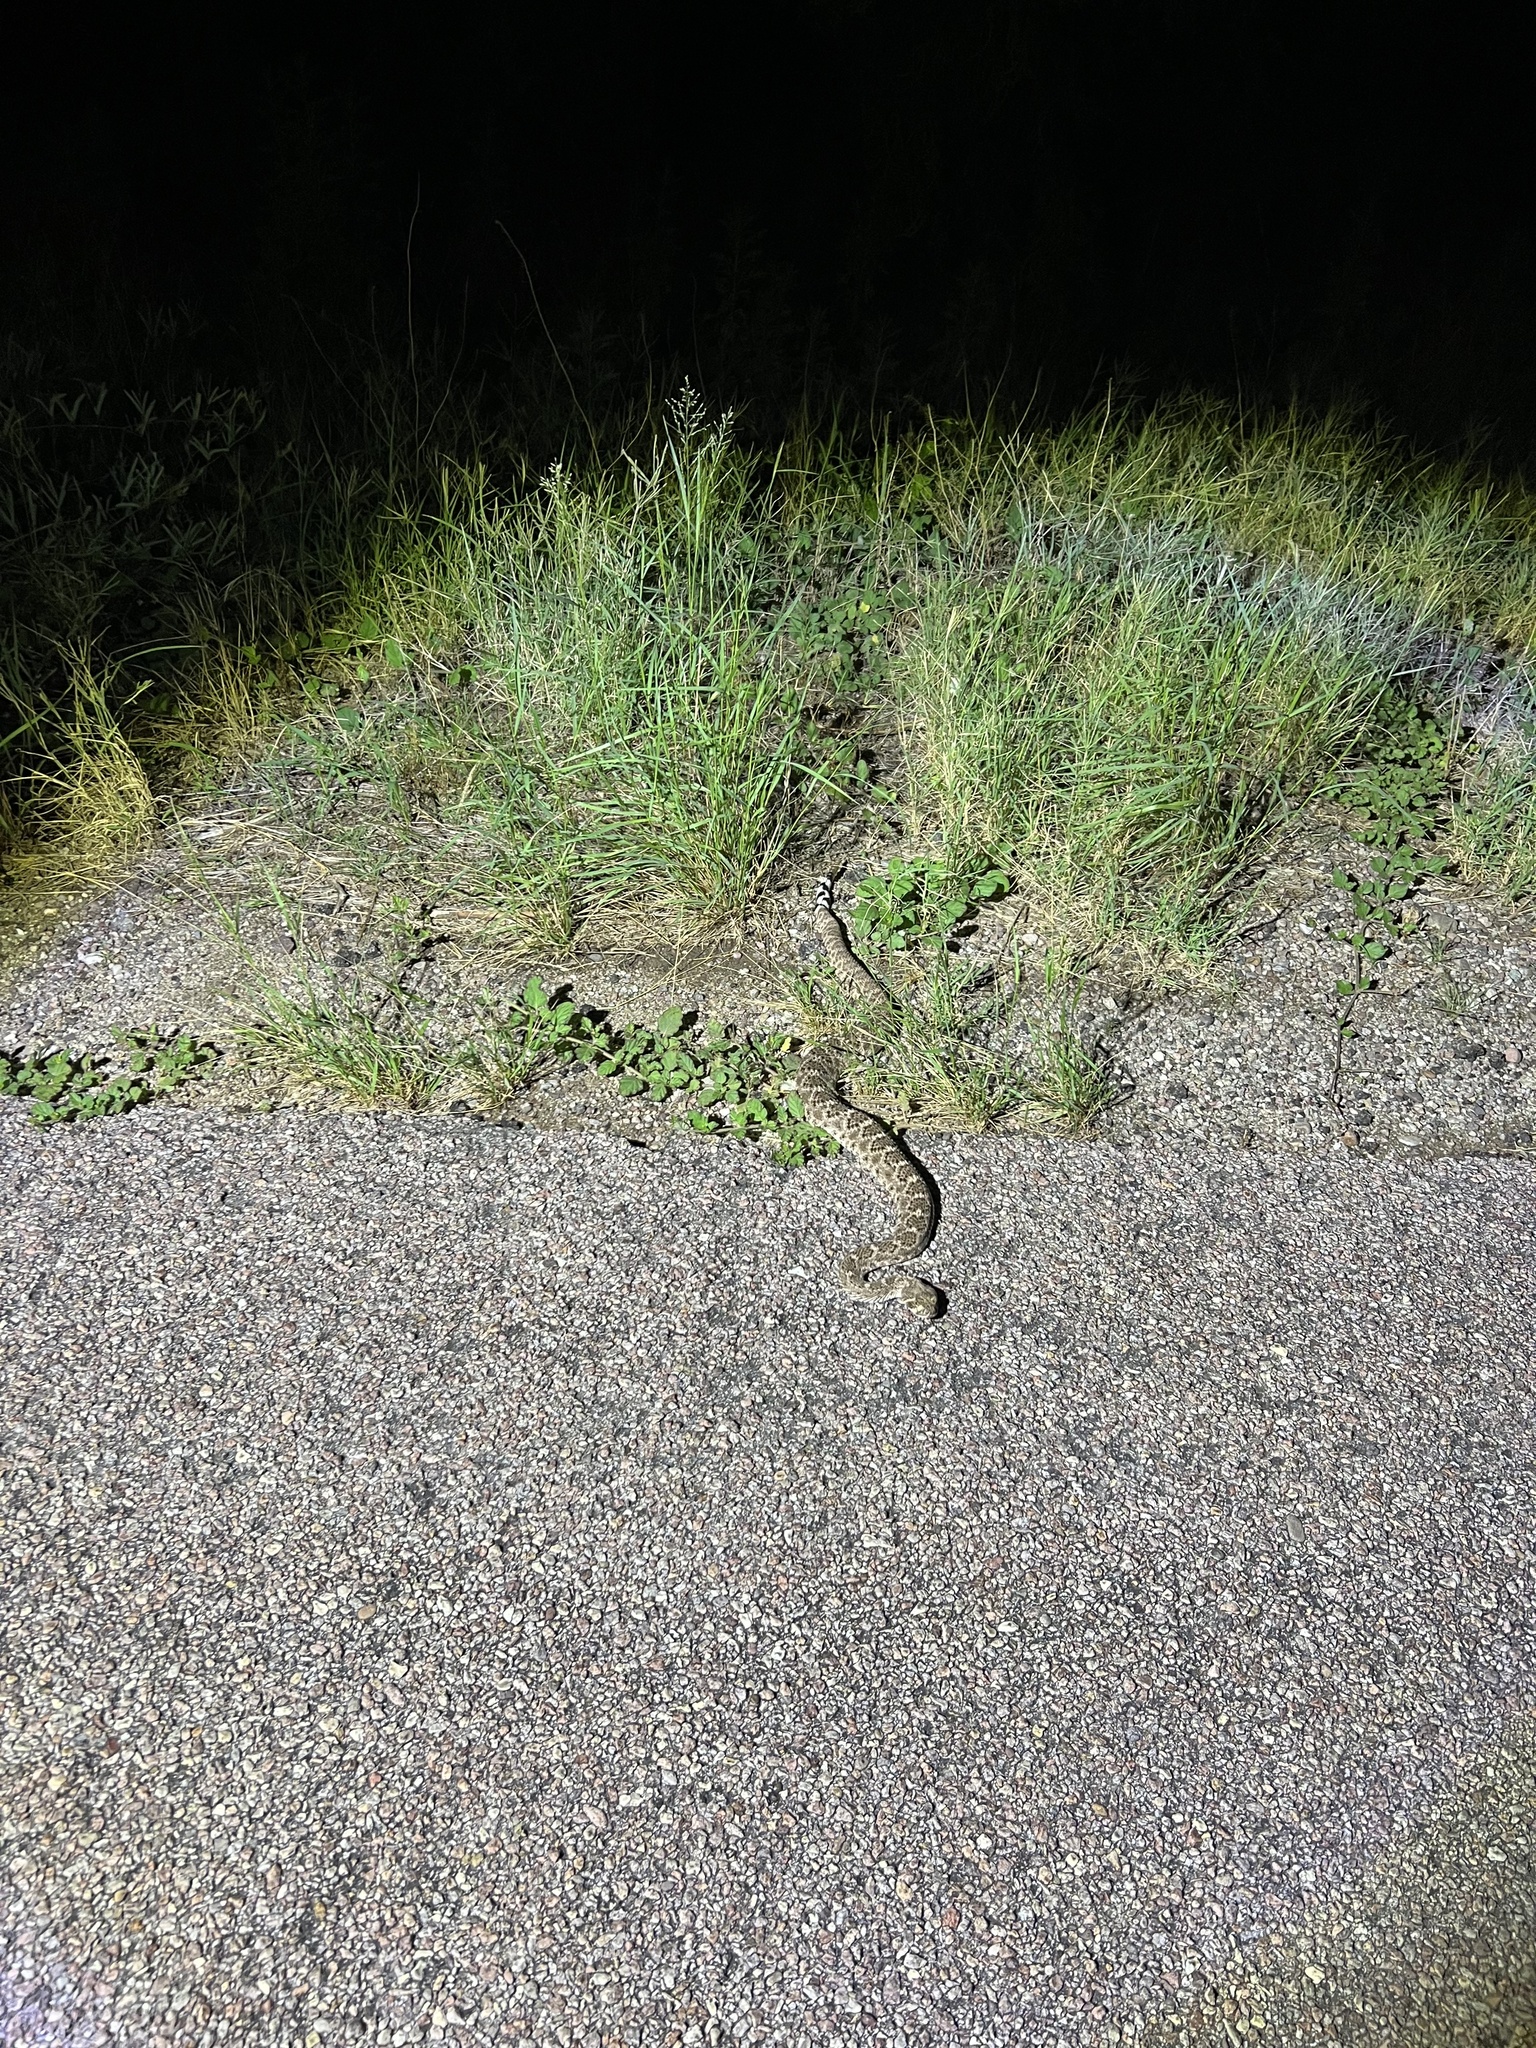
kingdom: Animalia
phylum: Chordata
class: Squamata
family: Viperidae
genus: Crotalus
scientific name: Crotalus atrox
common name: Western diamond-backed rattlesnake
